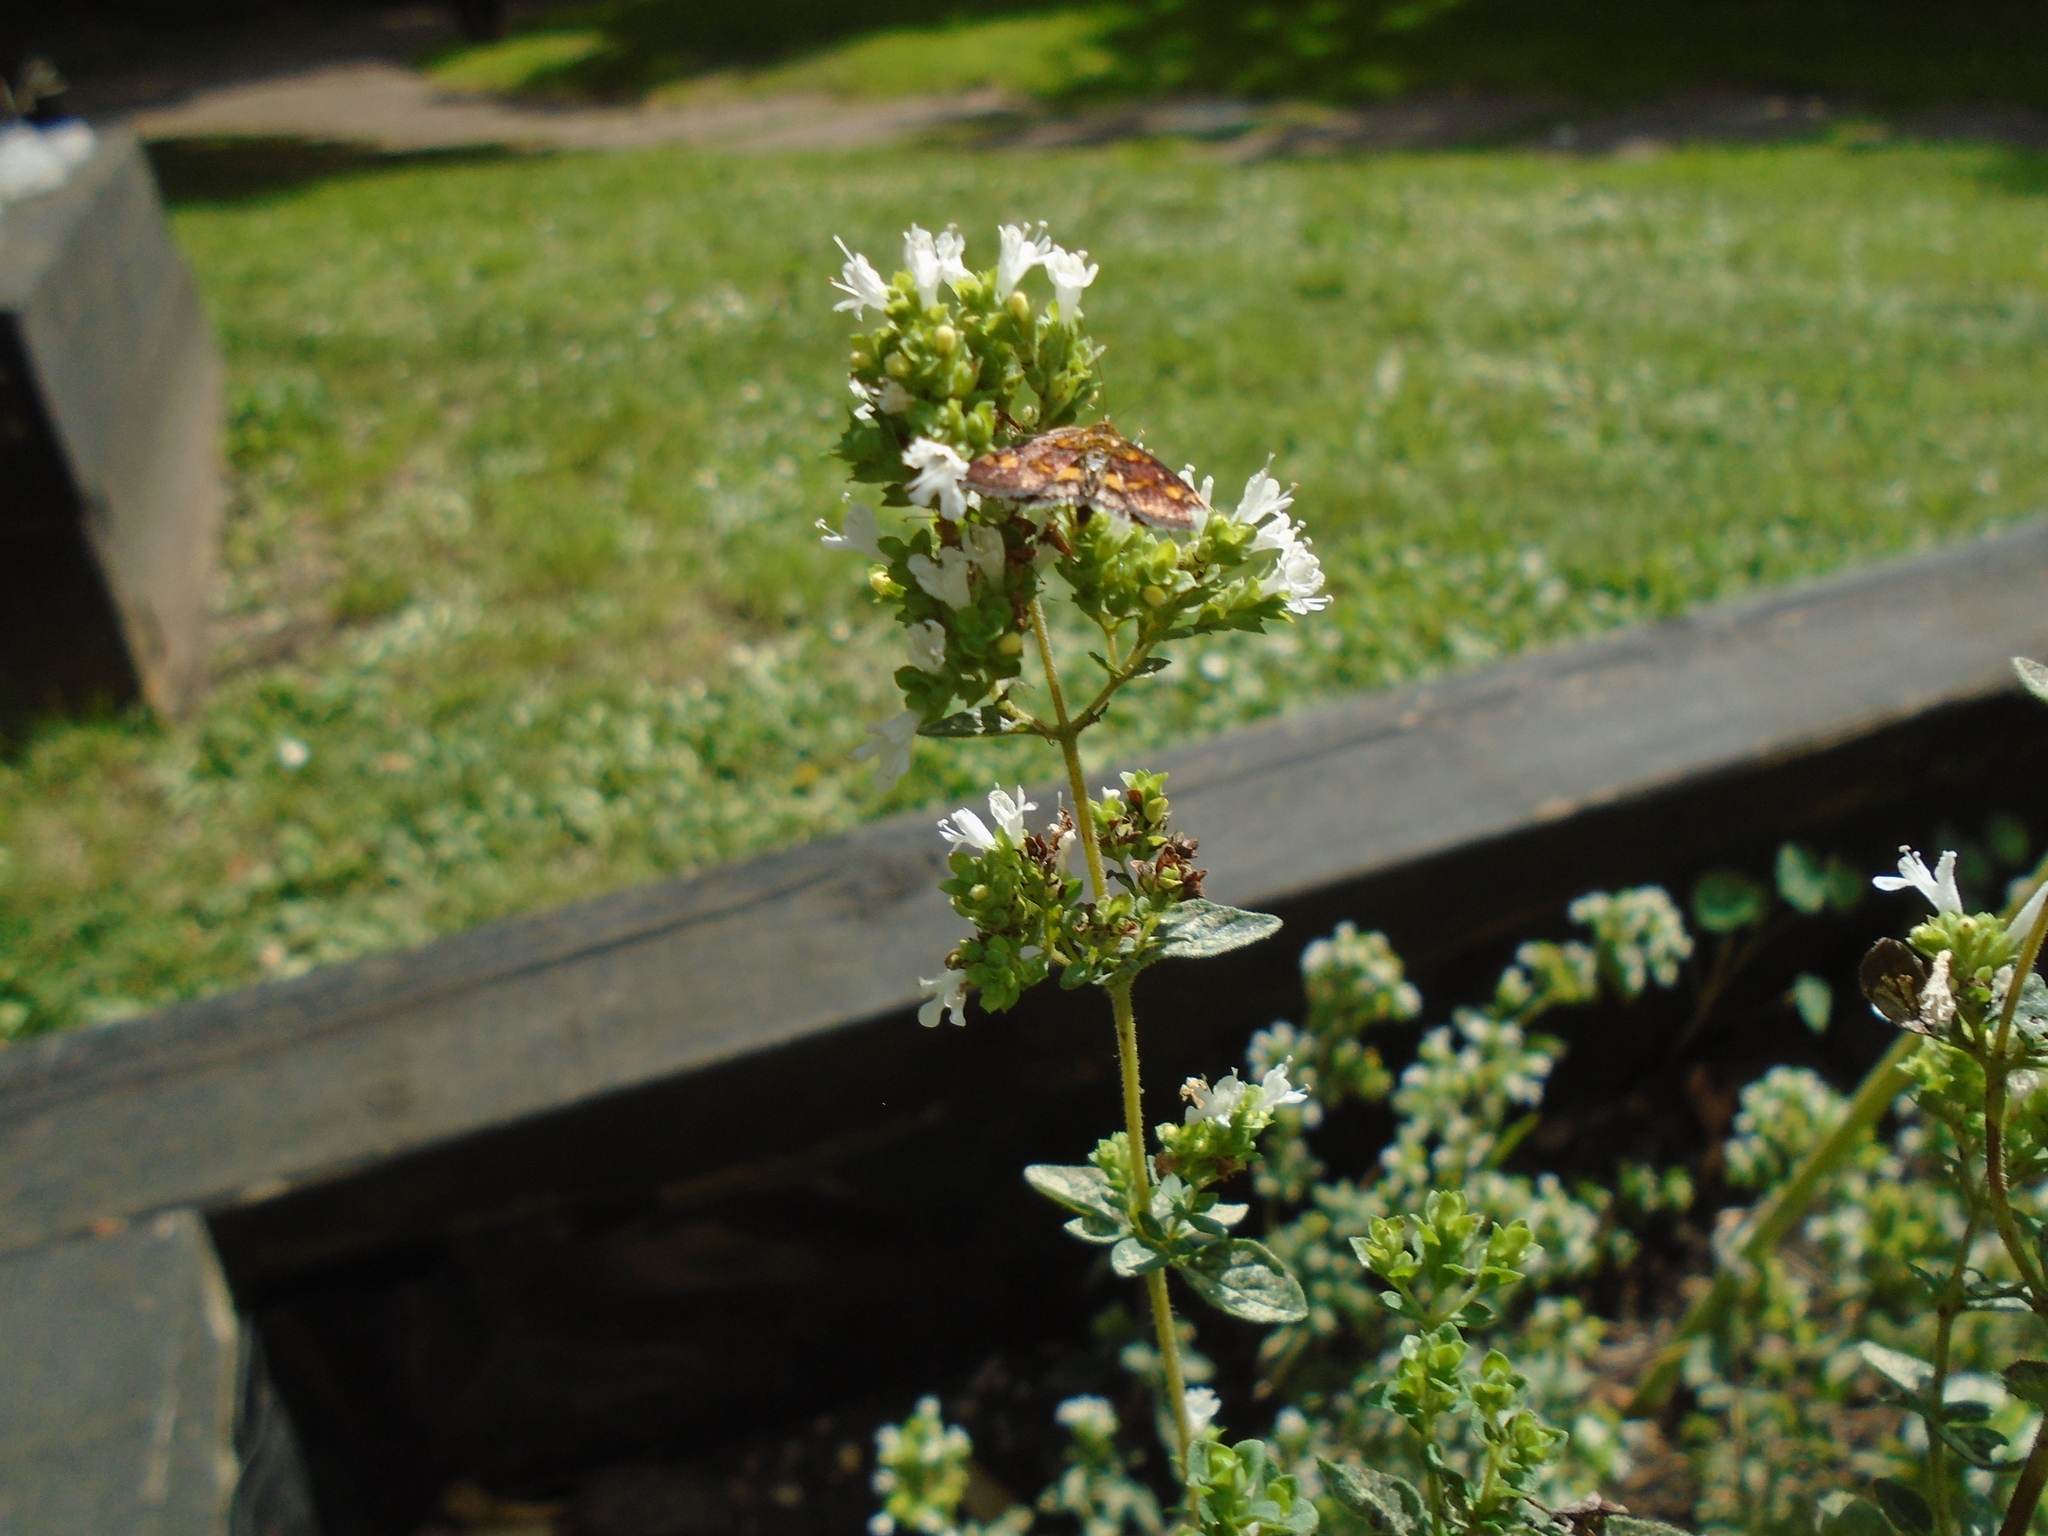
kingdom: Animalia
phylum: Arthropoda
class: Insecta
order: Lepidoptera
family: Crambidae
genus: Pyrausta
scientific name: Pyrausta aurata
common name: Small purple & gold
